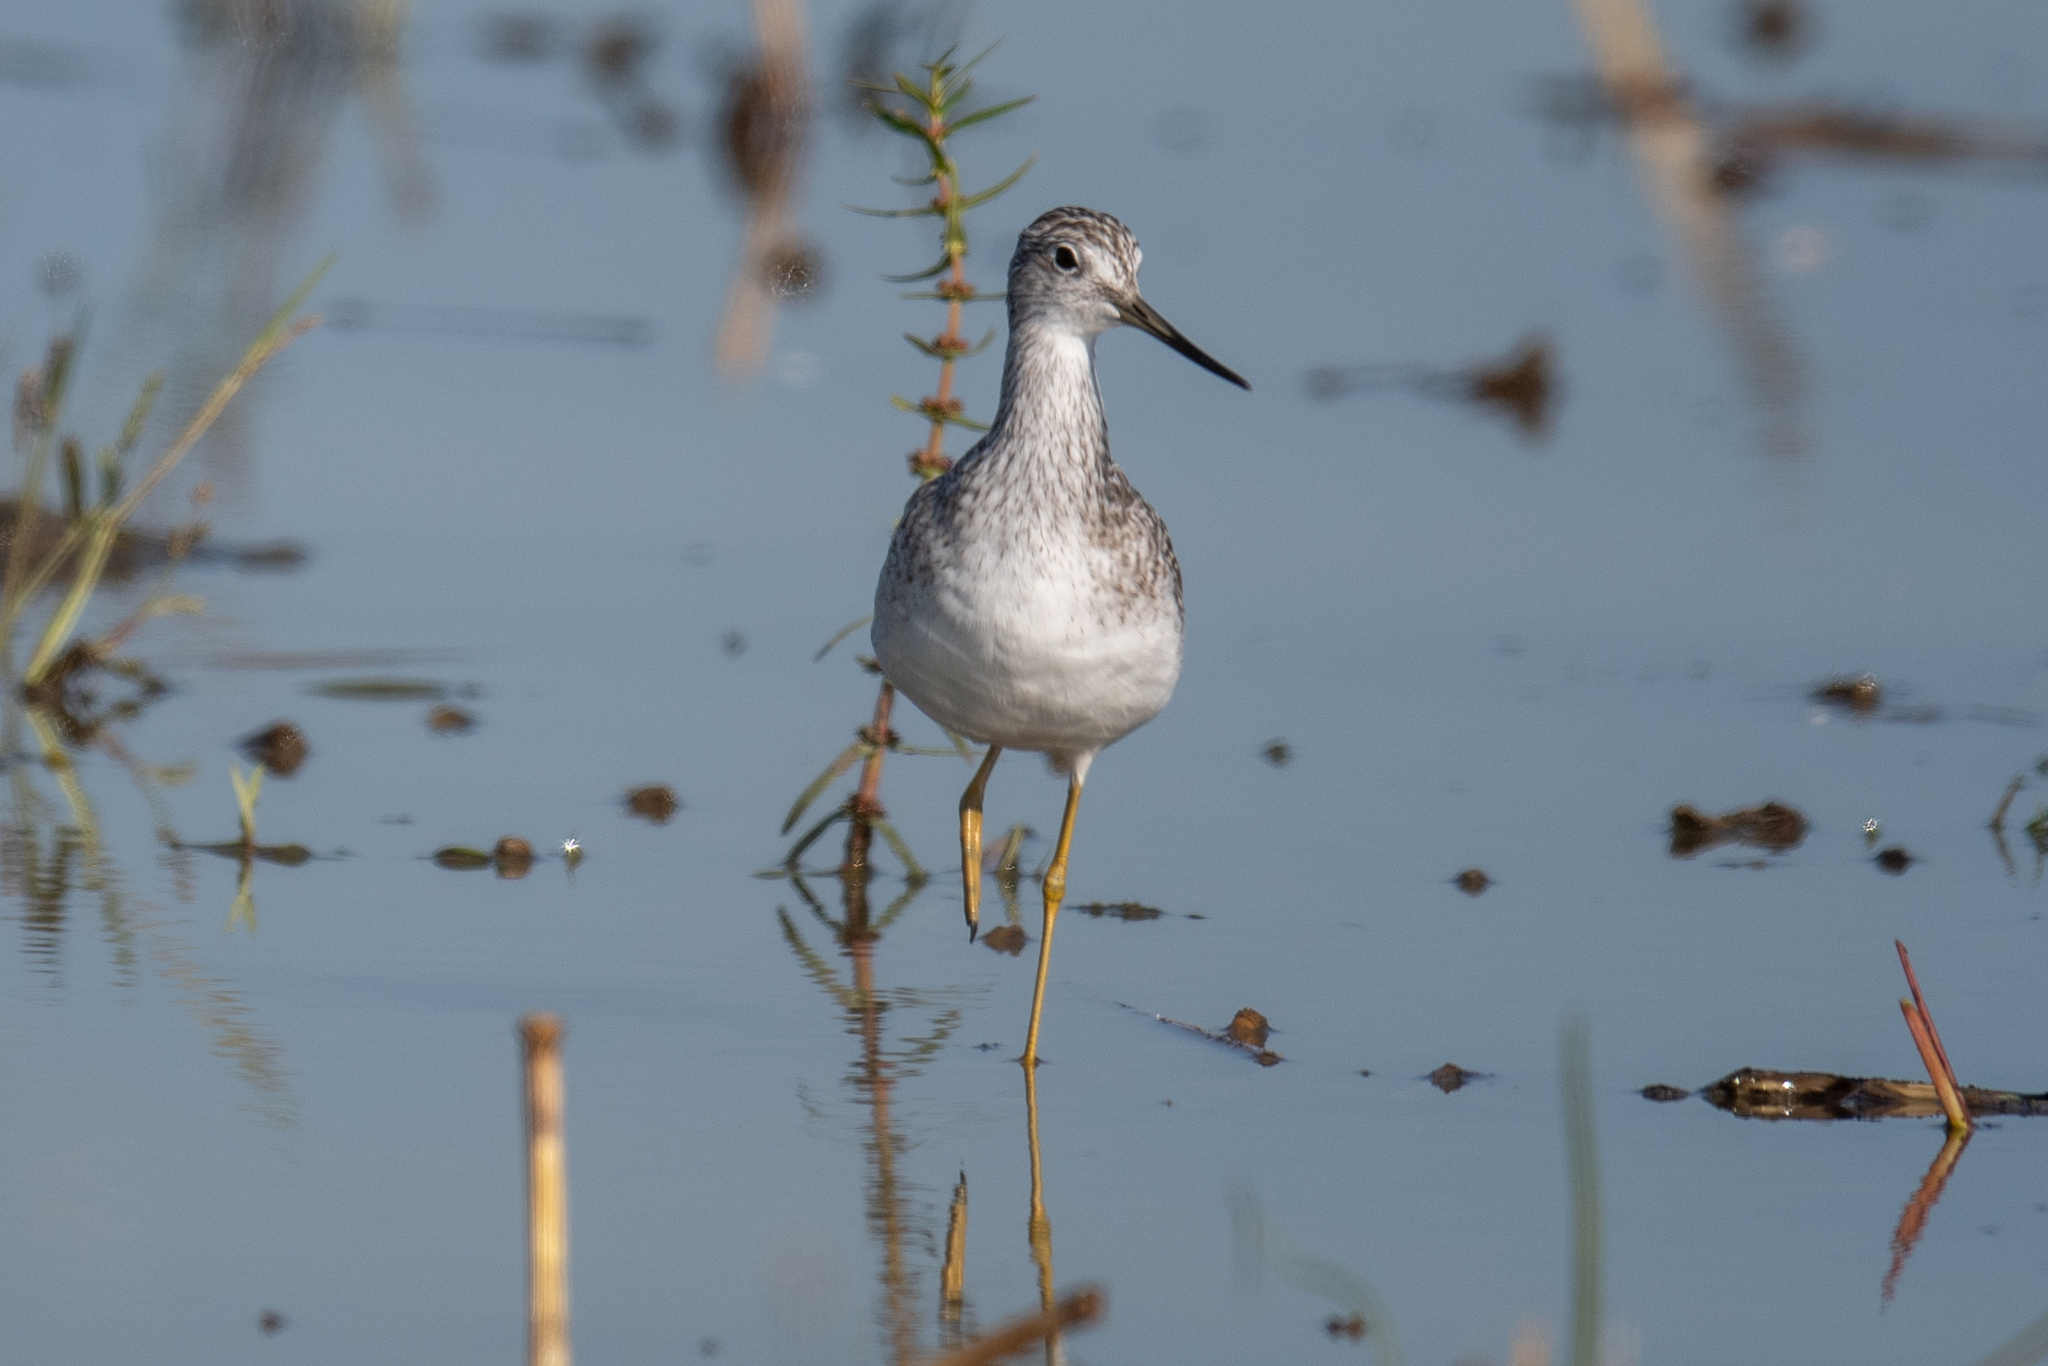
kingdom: Animalia
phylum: Chordata
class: Aves
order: Charadriiformes
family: Scolopacidae
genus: Tringa
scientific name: Tringa melanoleuca
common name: Greater yellowlegs
